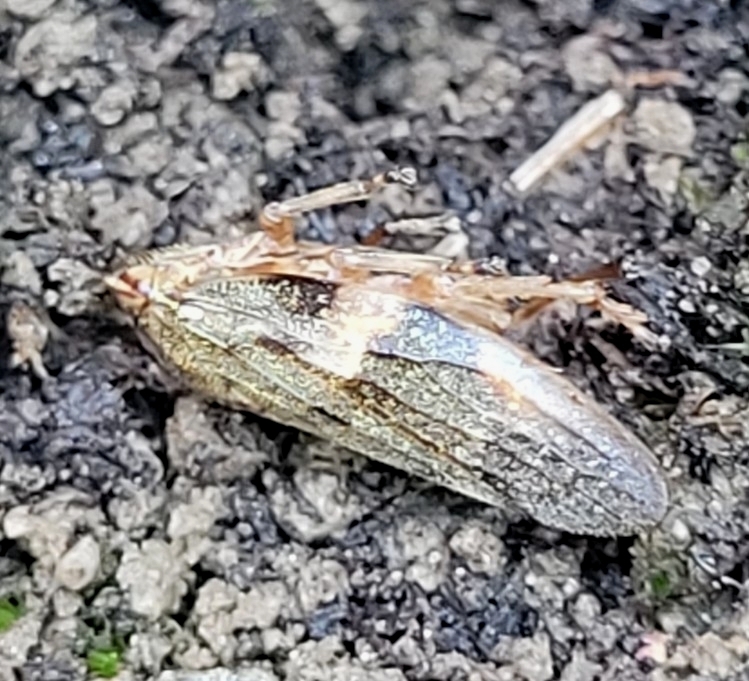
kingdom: Animalia
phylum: Arthropoda
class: Insecta
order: Hemiptera
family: Aphrophoridae
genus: Aphrophora
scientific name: Aphrophora alni
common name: European alder spittlebug
